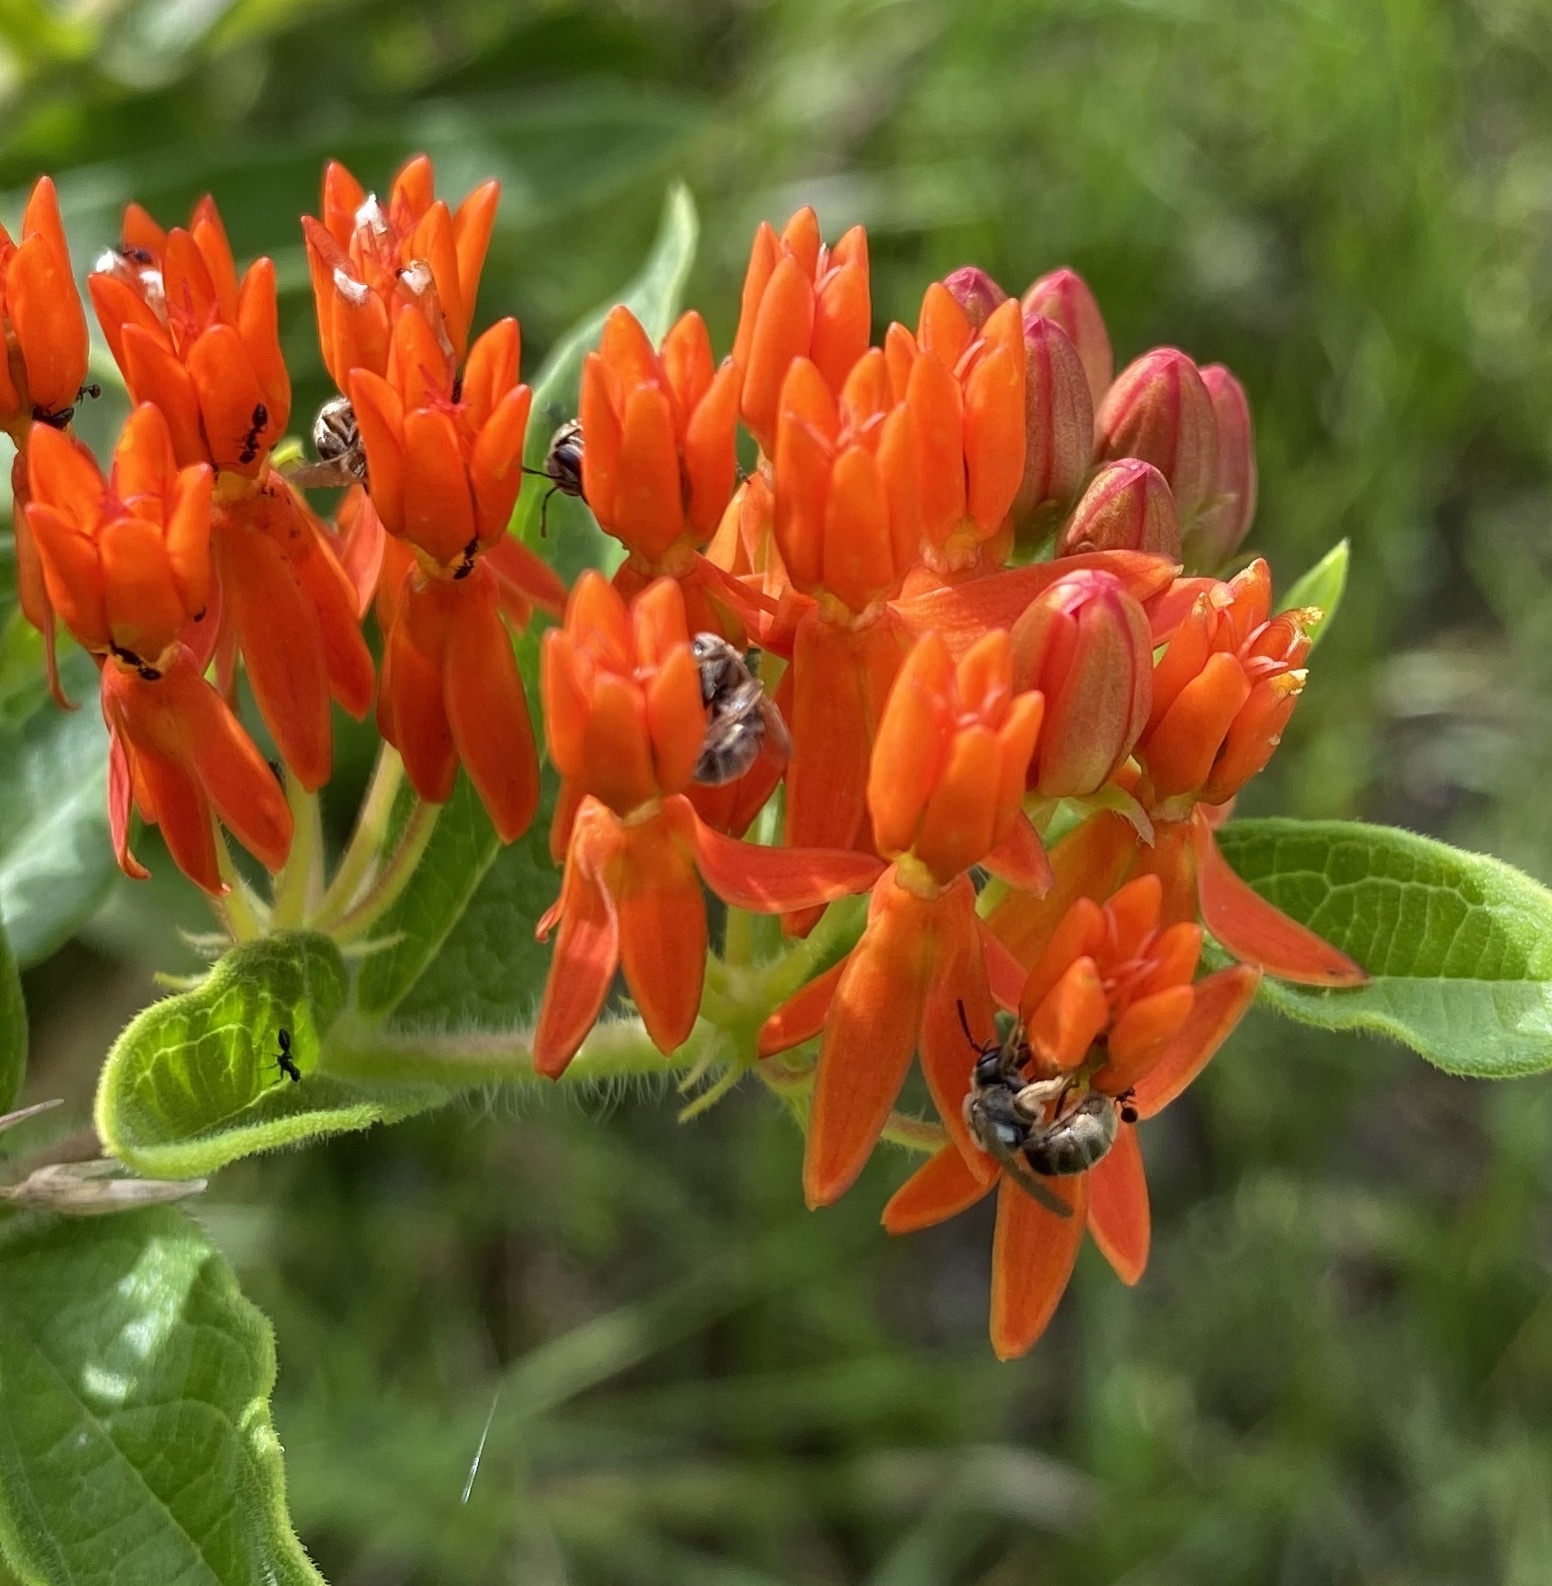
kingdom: Plantae
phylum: Tracheophyta
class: Magnoliopsida
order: Gentianales
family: Apocynaceae
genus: Asclepias
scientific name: Asclepias tuberosa
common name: Butterfly milkweed
